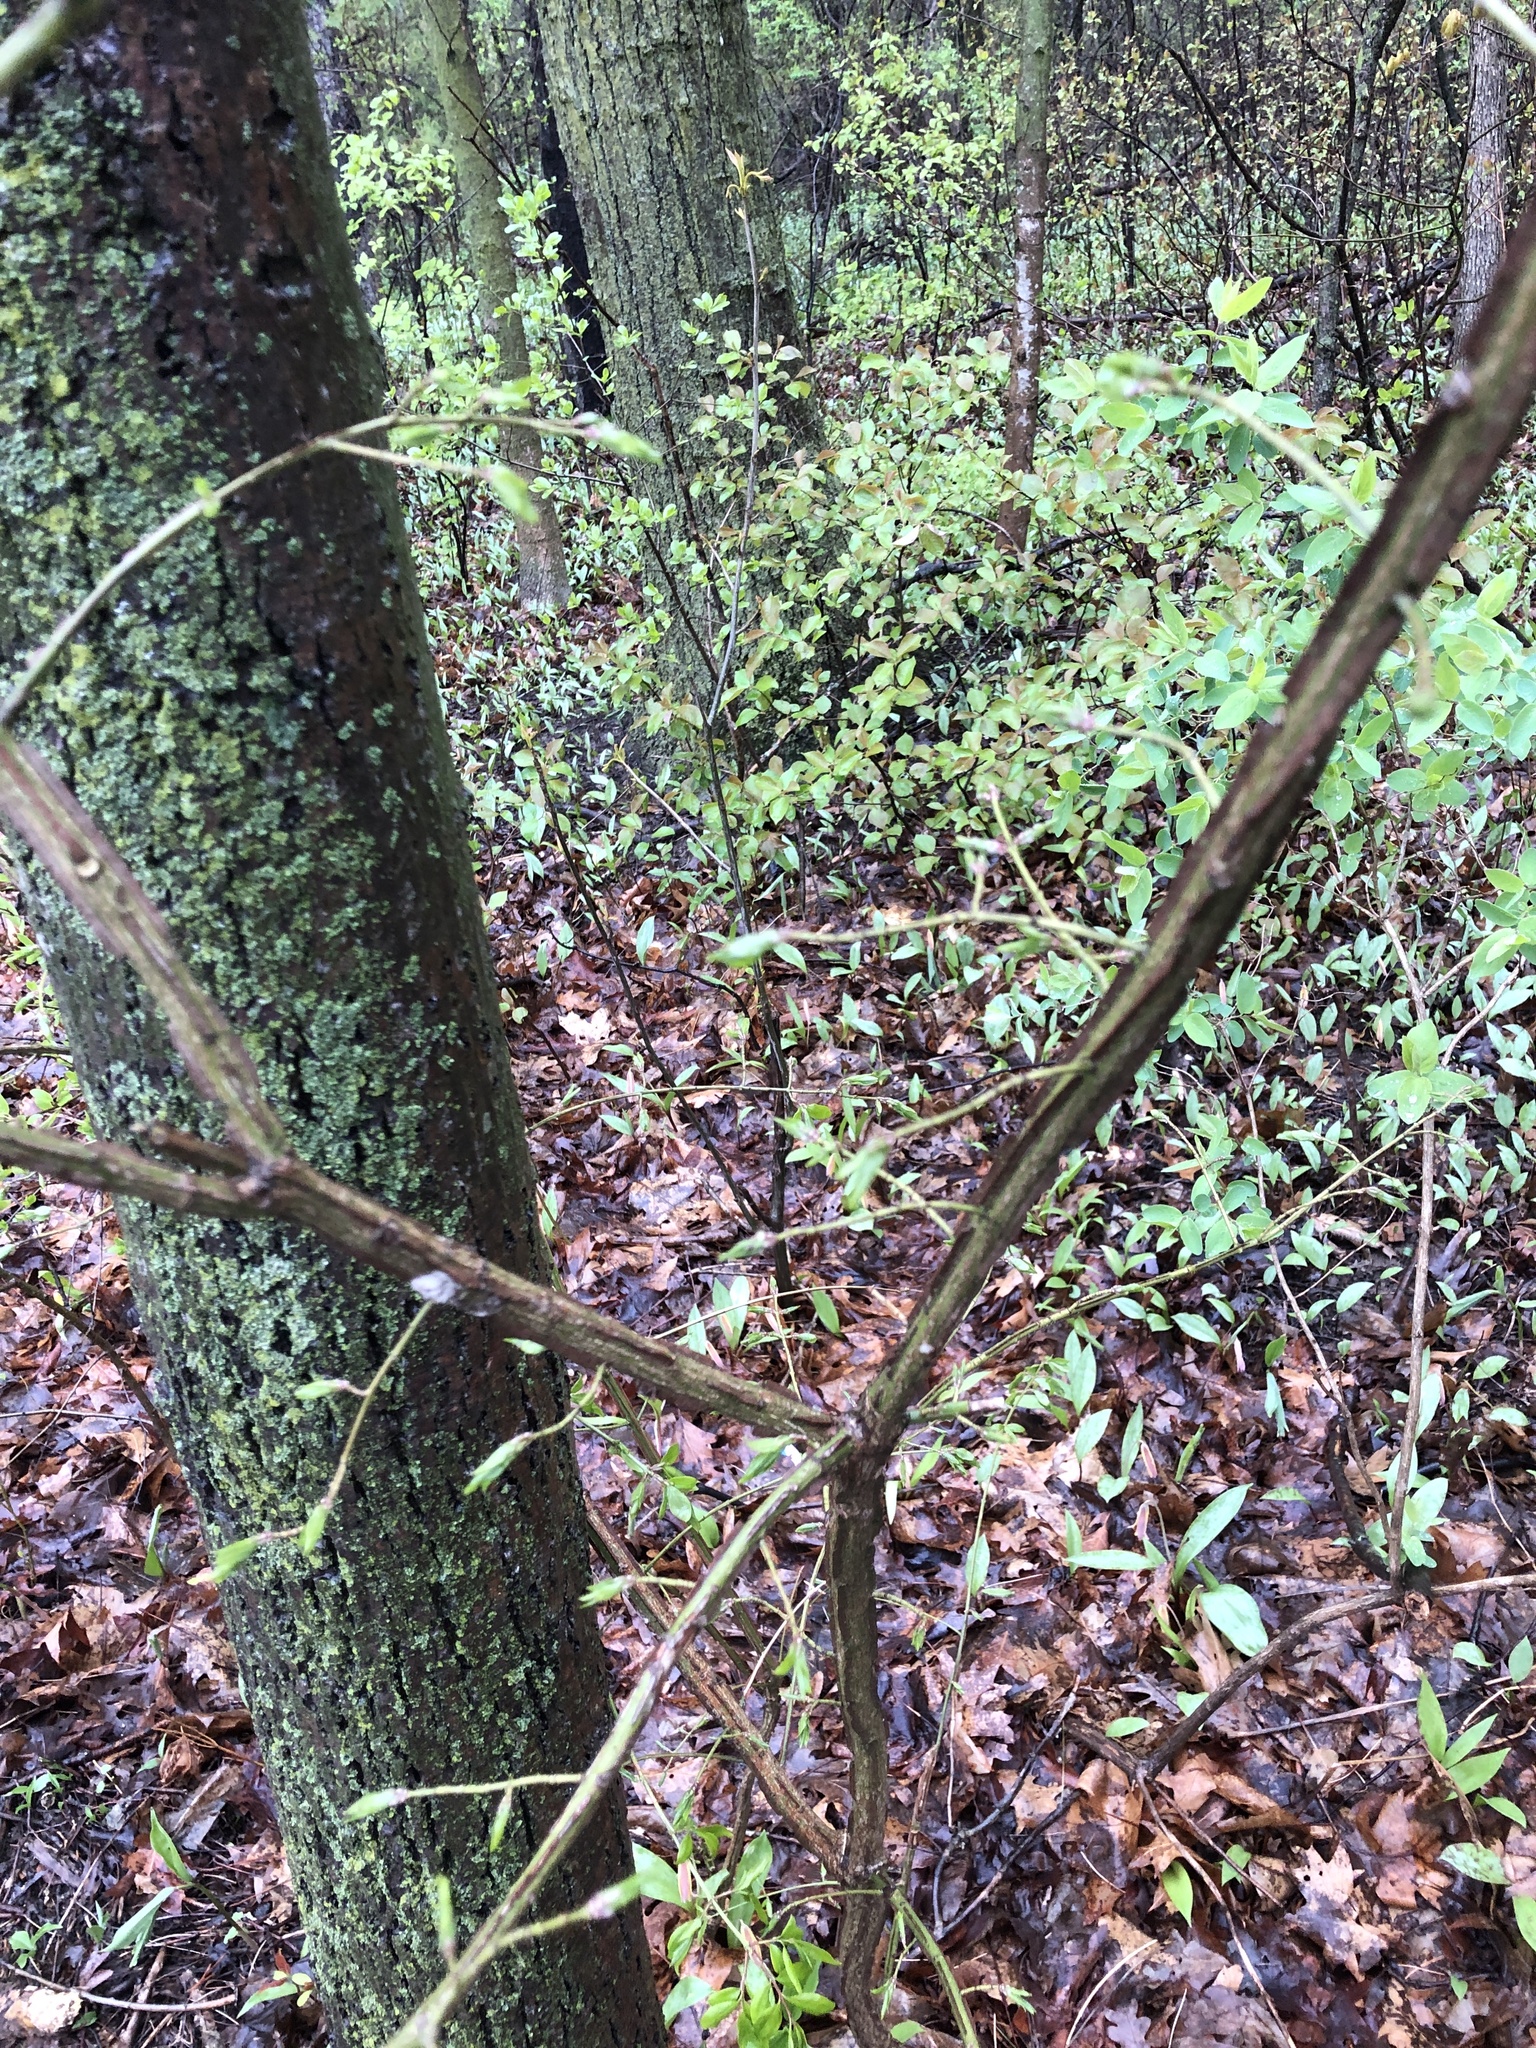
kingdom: Plantae
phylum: Tracheophyta
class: Magnoliopsida
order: Celastrales
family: Celastraceae
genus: Euonymus
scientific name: Euonymus alatus
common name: Winged euonymus
